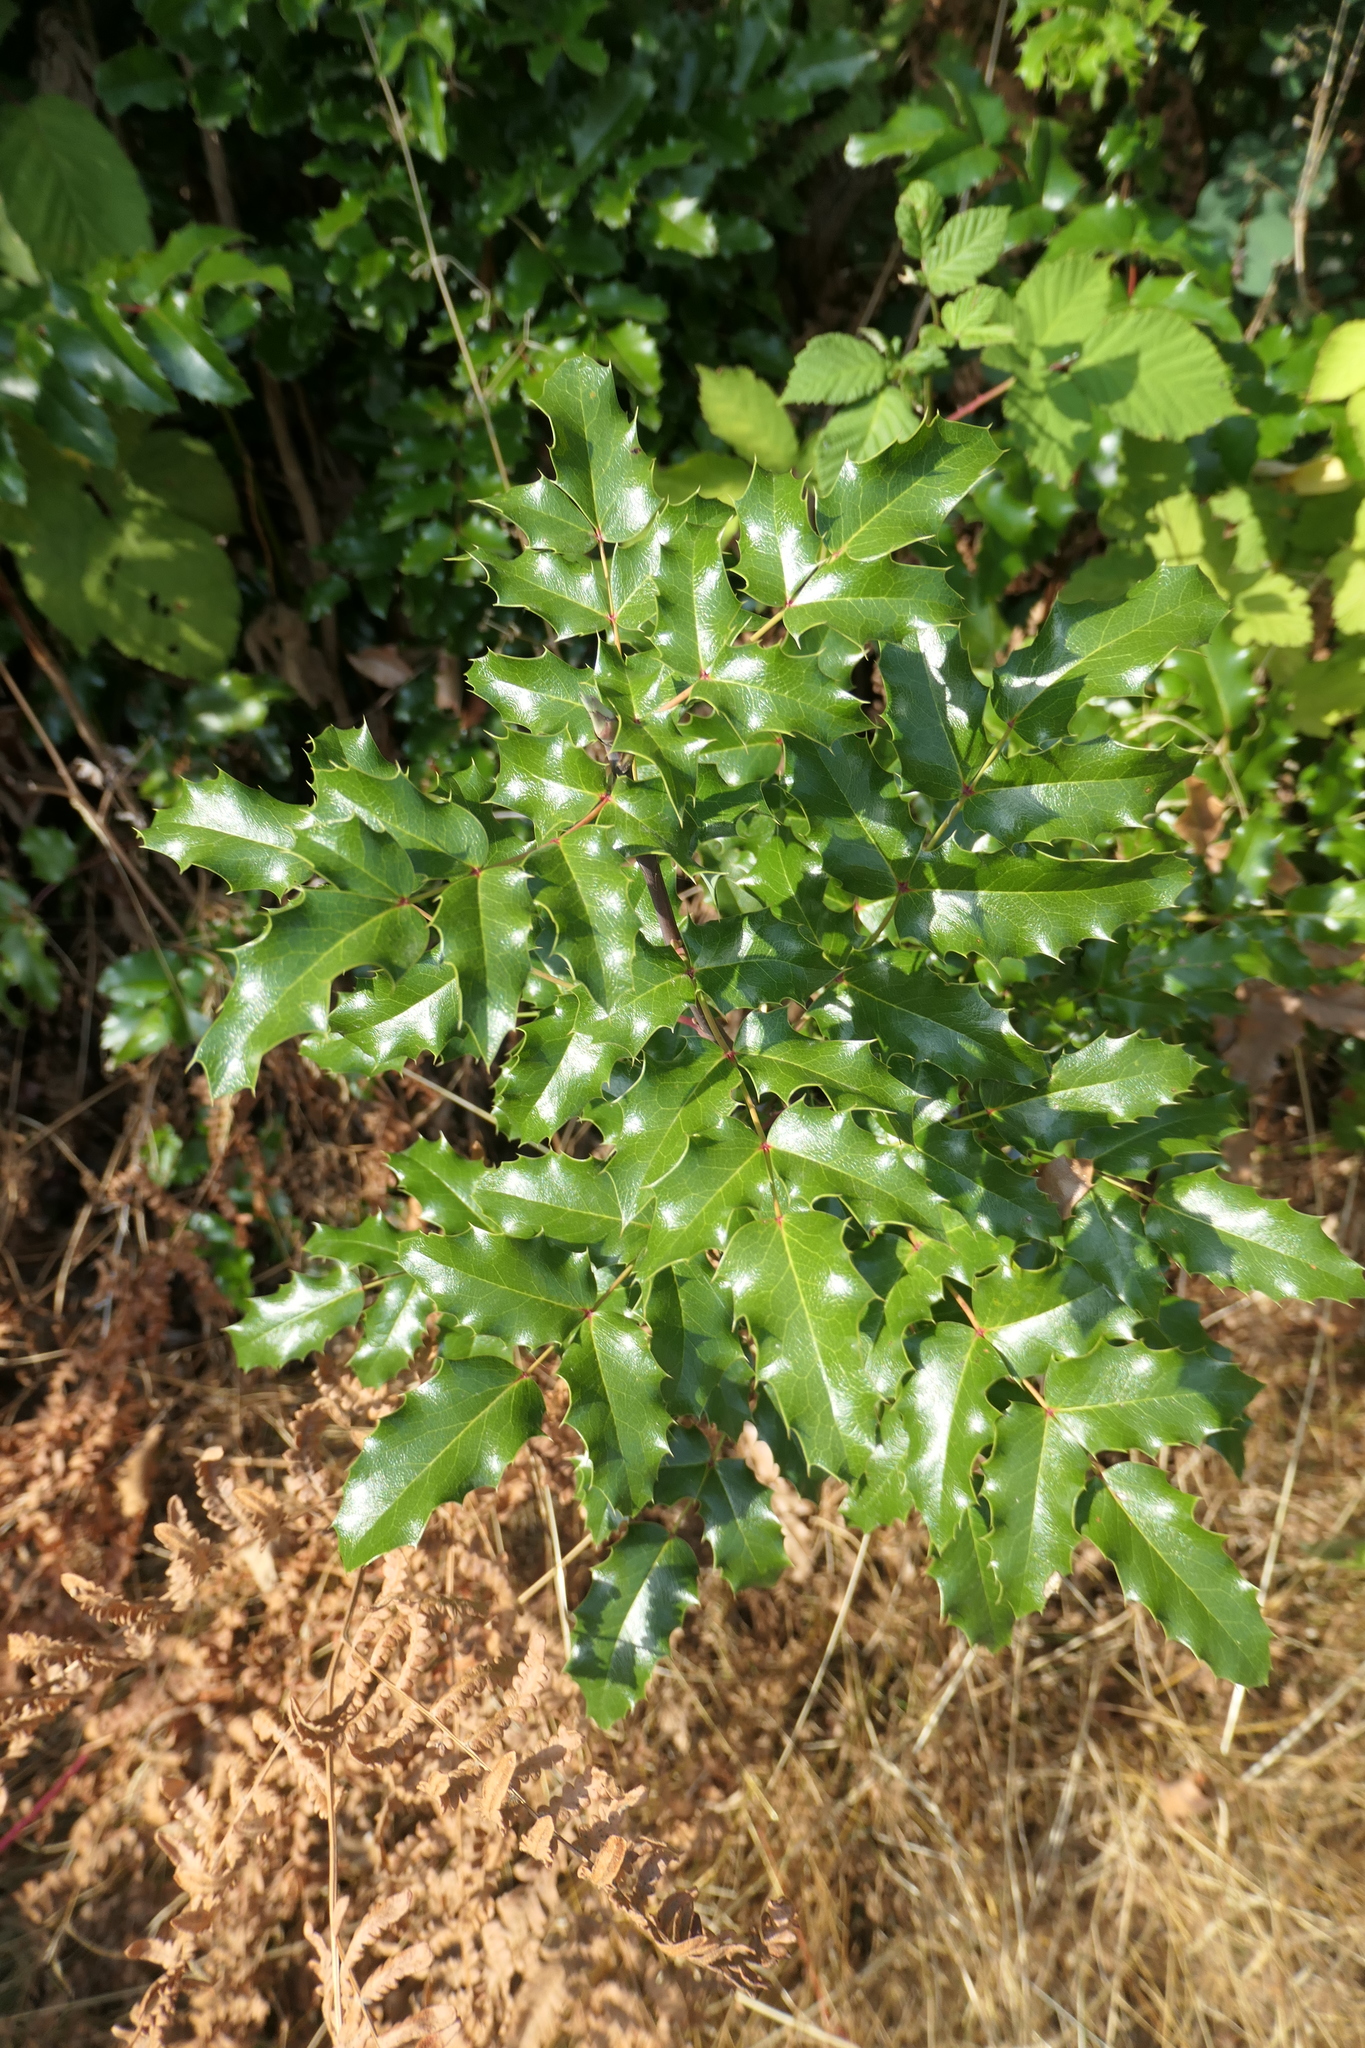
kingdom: Plantae
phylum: Tracheophyta
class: Magnoliopsida
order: Ranunculales
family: Berberidaceae
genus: Mahonia
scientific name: Mahonia aquifolium
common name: Oregon-grape
